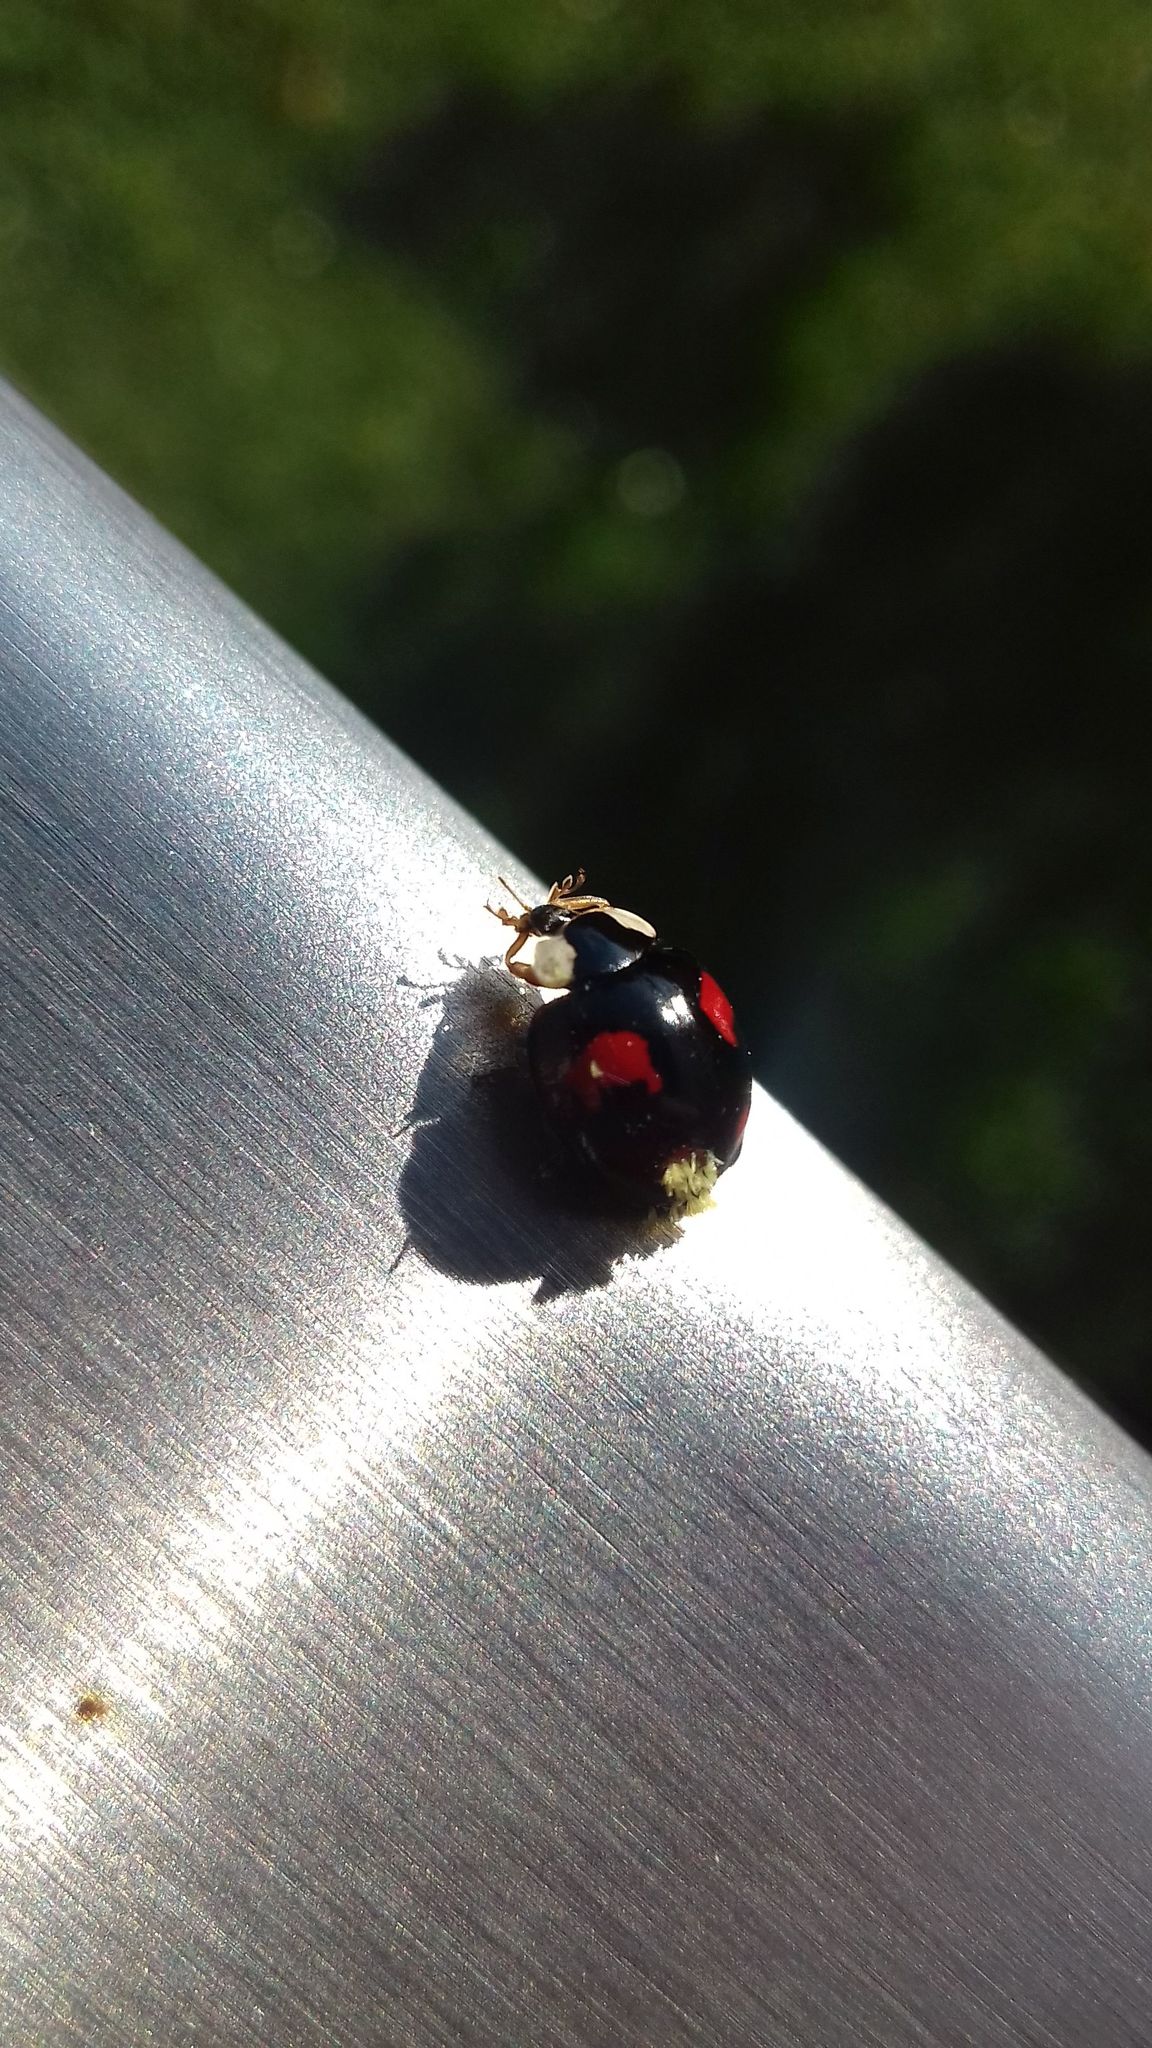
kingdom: Animalia
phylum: Arthropoda
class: Insecta
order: Coleoptera
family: Coccinellidae
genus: Harmonia
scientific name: Harmonia axyridis
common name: Harlequin ladybird
